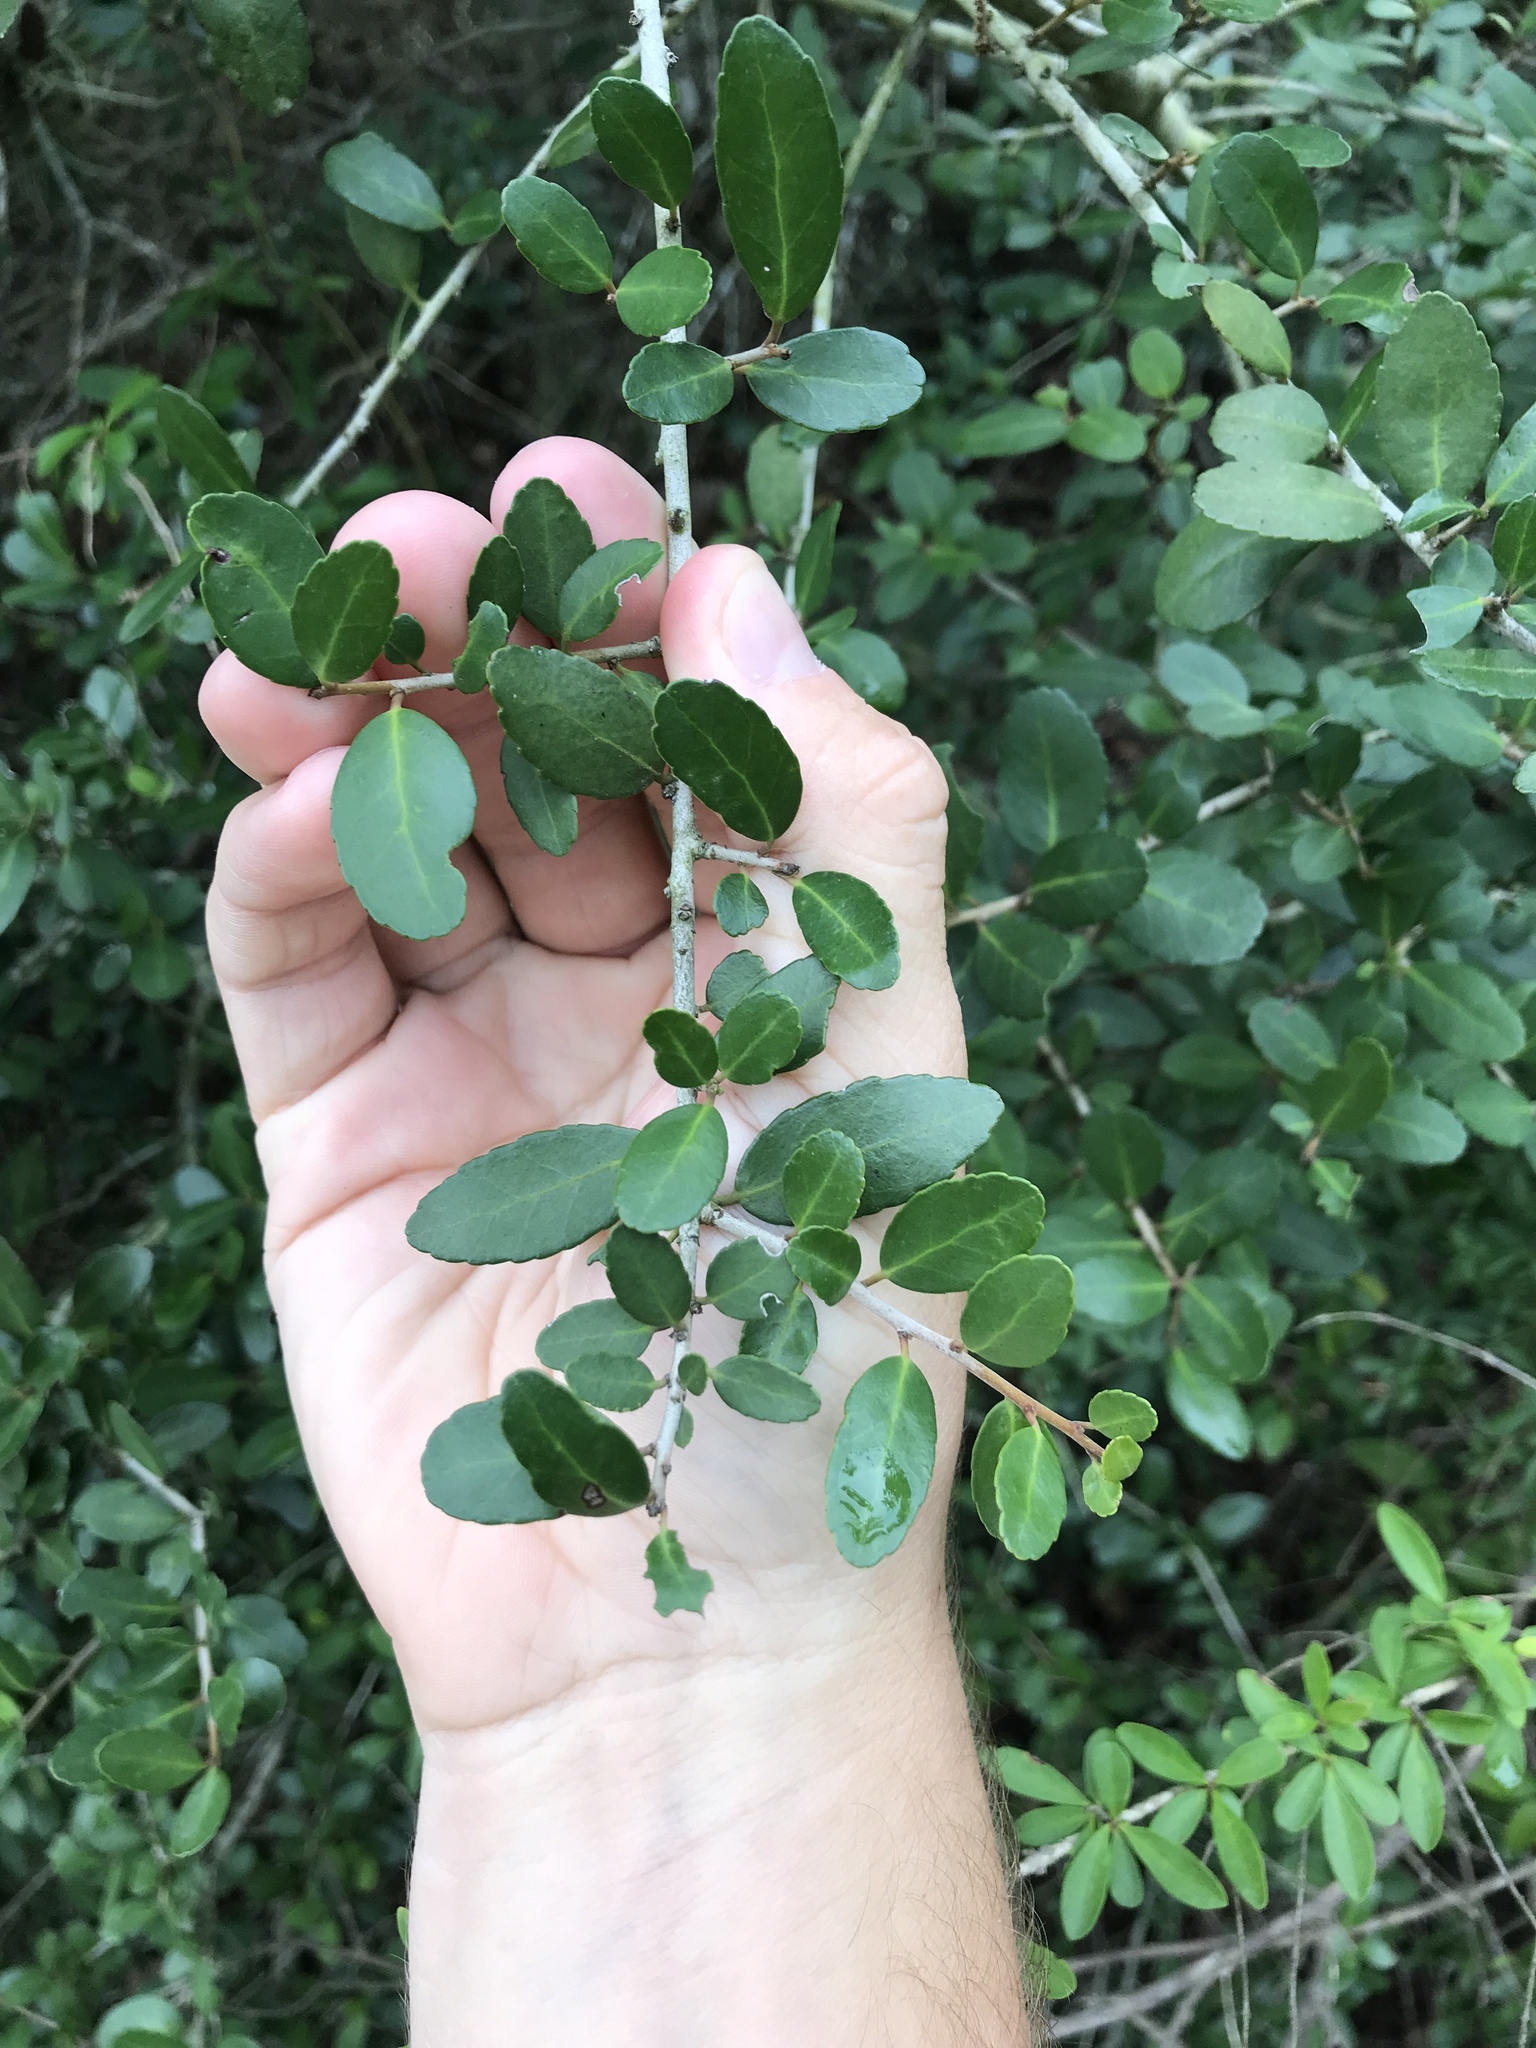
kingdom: Plantae
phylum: Tracheophyta
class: Magnoliopsida
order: Aquifoliales
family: Aquifoliaceae
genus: Ilex
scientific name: Ilex vomitoria
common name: Yaupon holly
